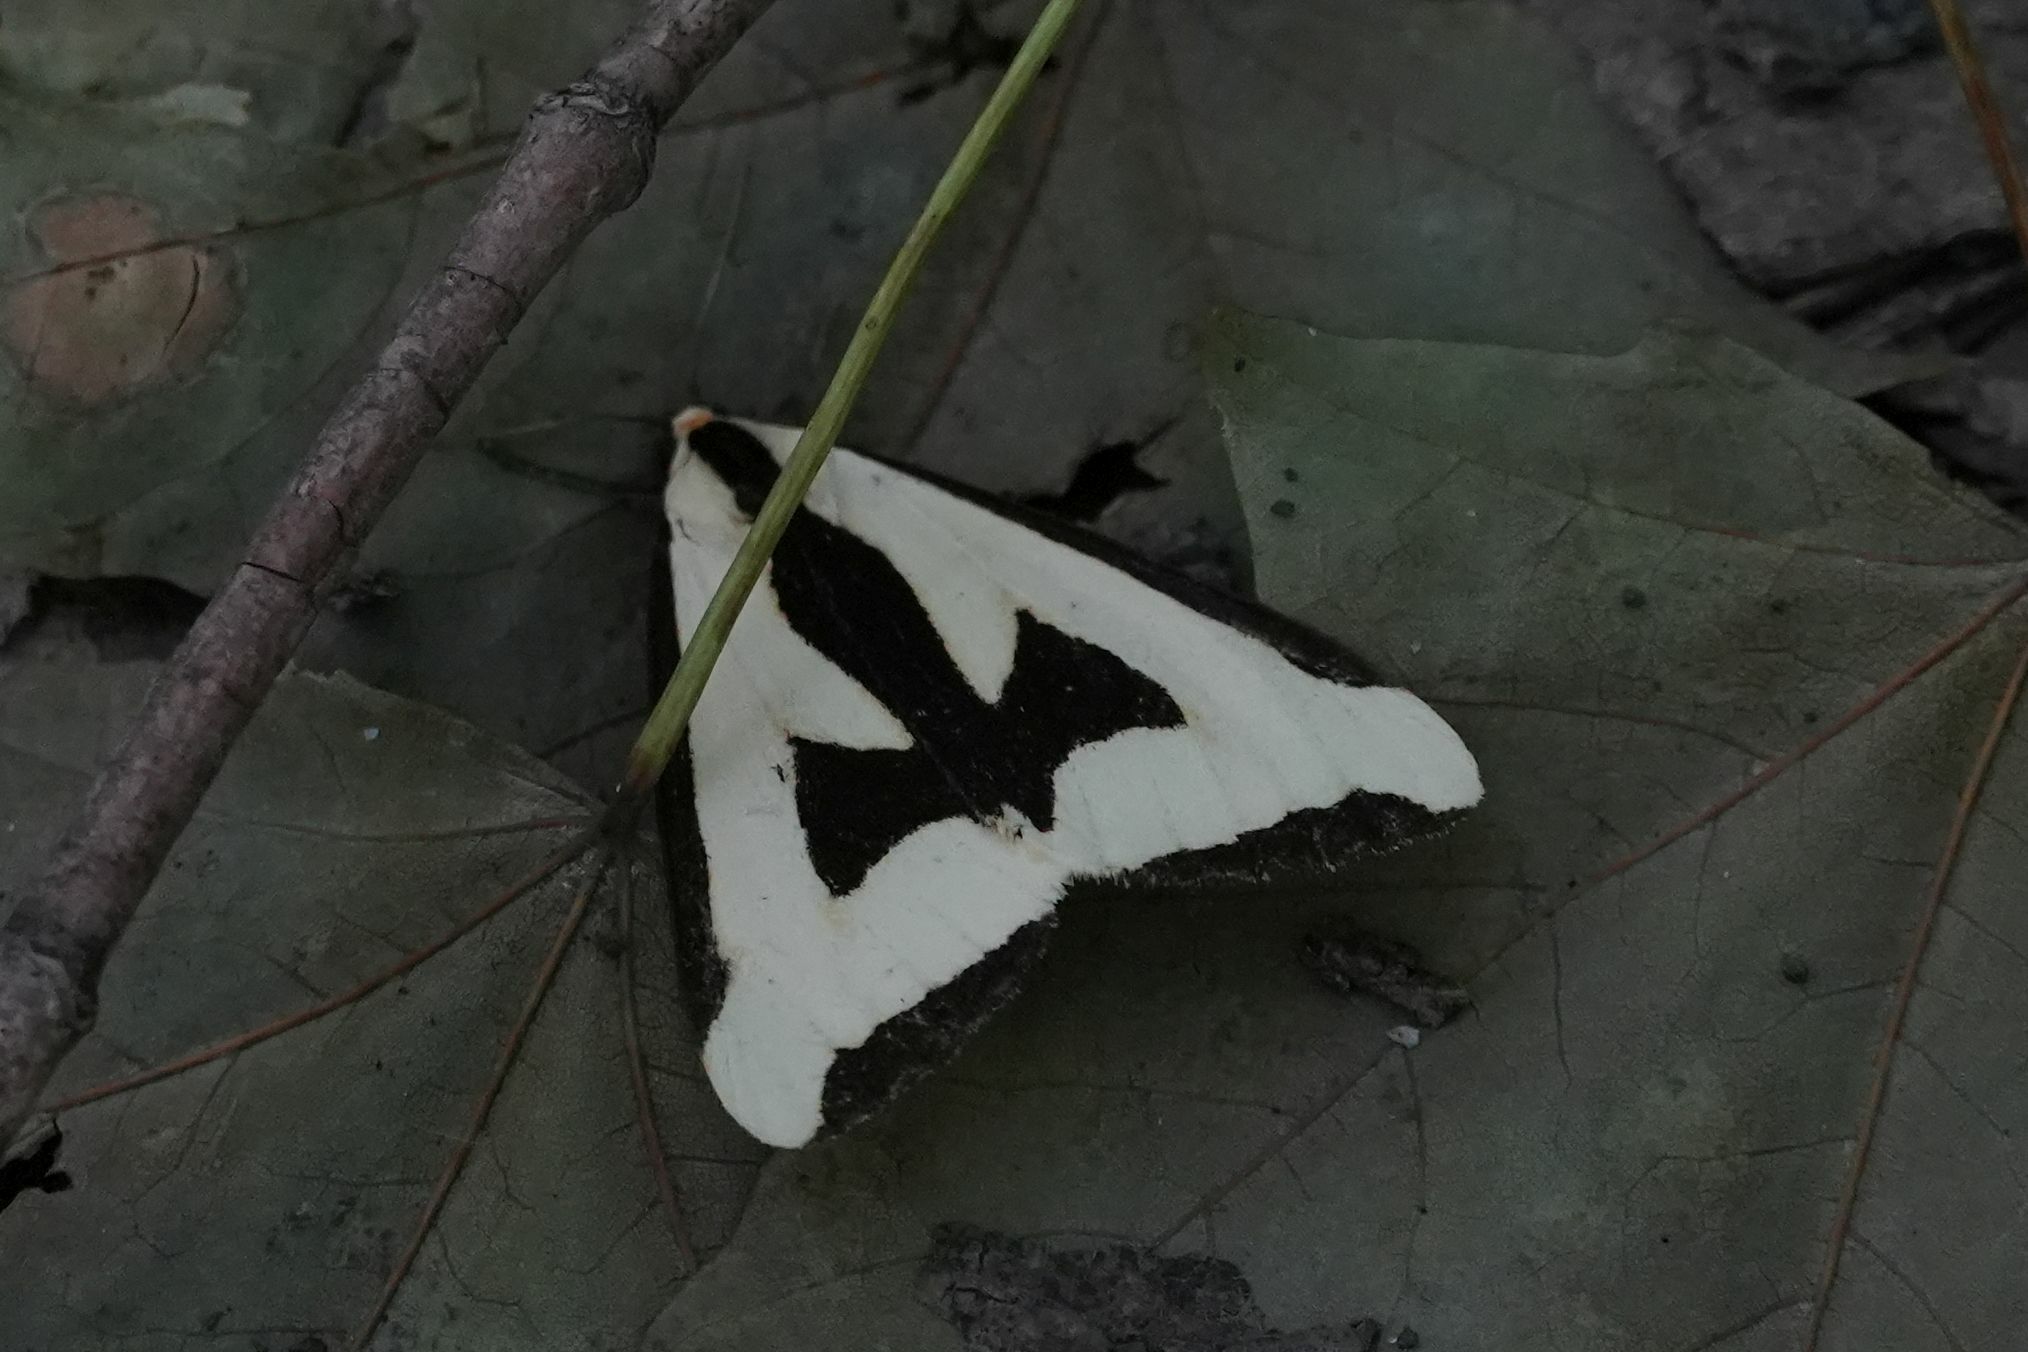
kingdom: Animalia
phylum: Arthropoda
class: Insecta
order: Lepidoptera
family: Erebidae
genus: Haploa
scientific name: Haploa clymene
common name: Clymene moth
